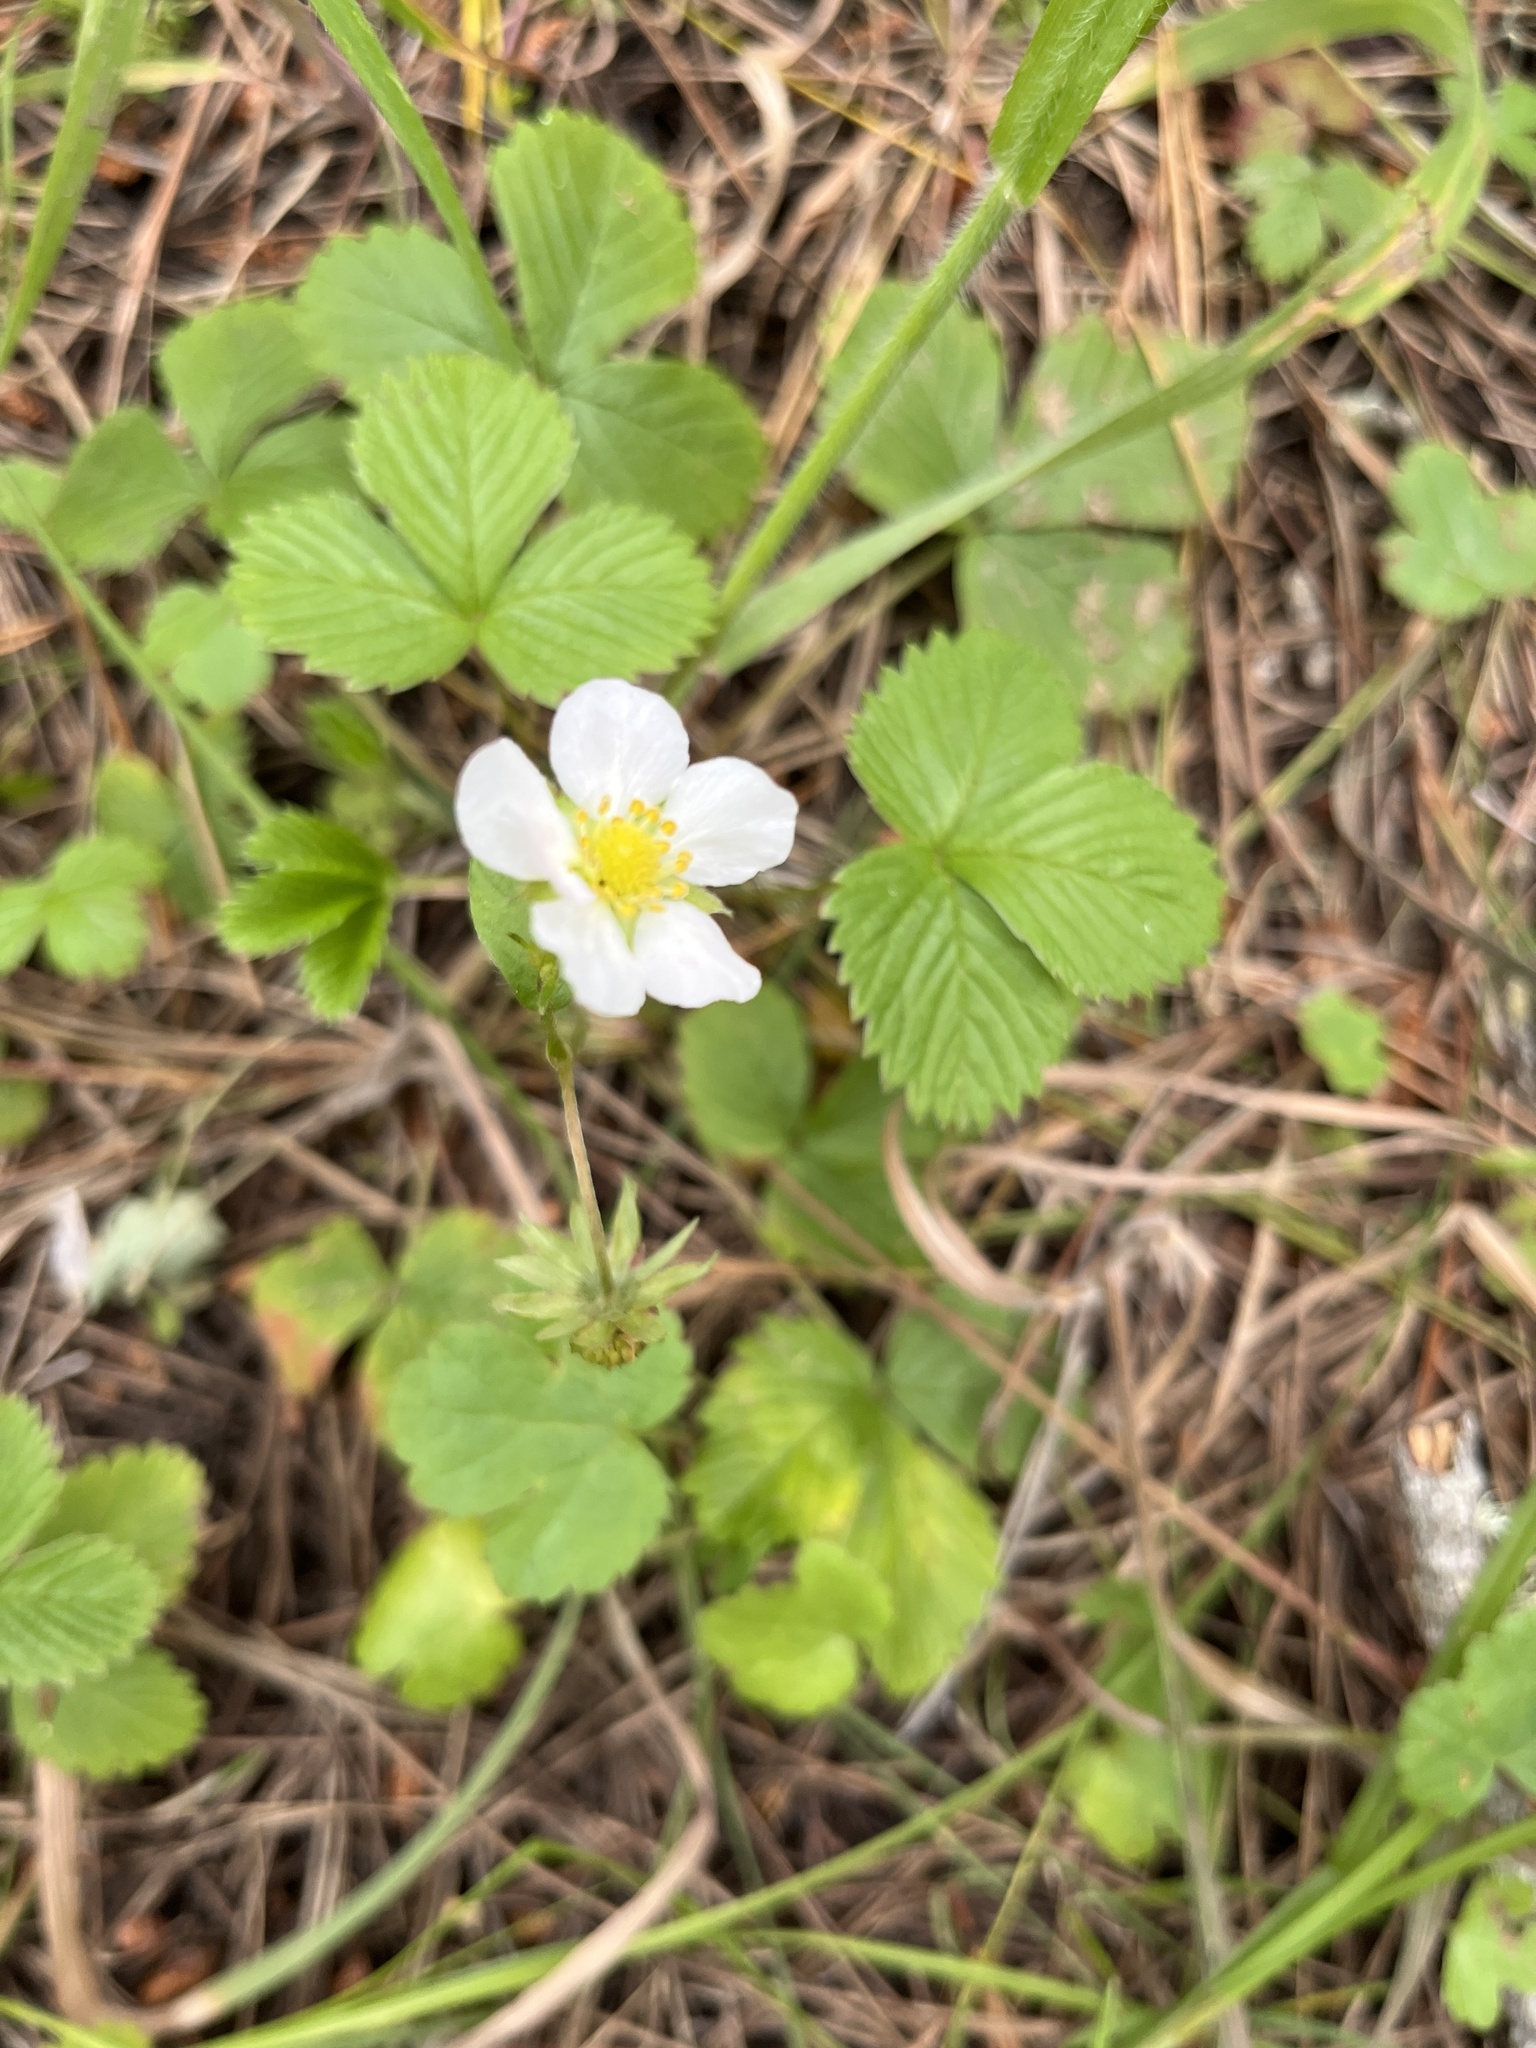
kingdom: Plantae
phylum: Tracheophyta
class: Magnoliopsida
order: Rosales
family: Rosaceae
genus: Fragaria
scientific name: Fragaria vesca
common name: Wild strawberry
